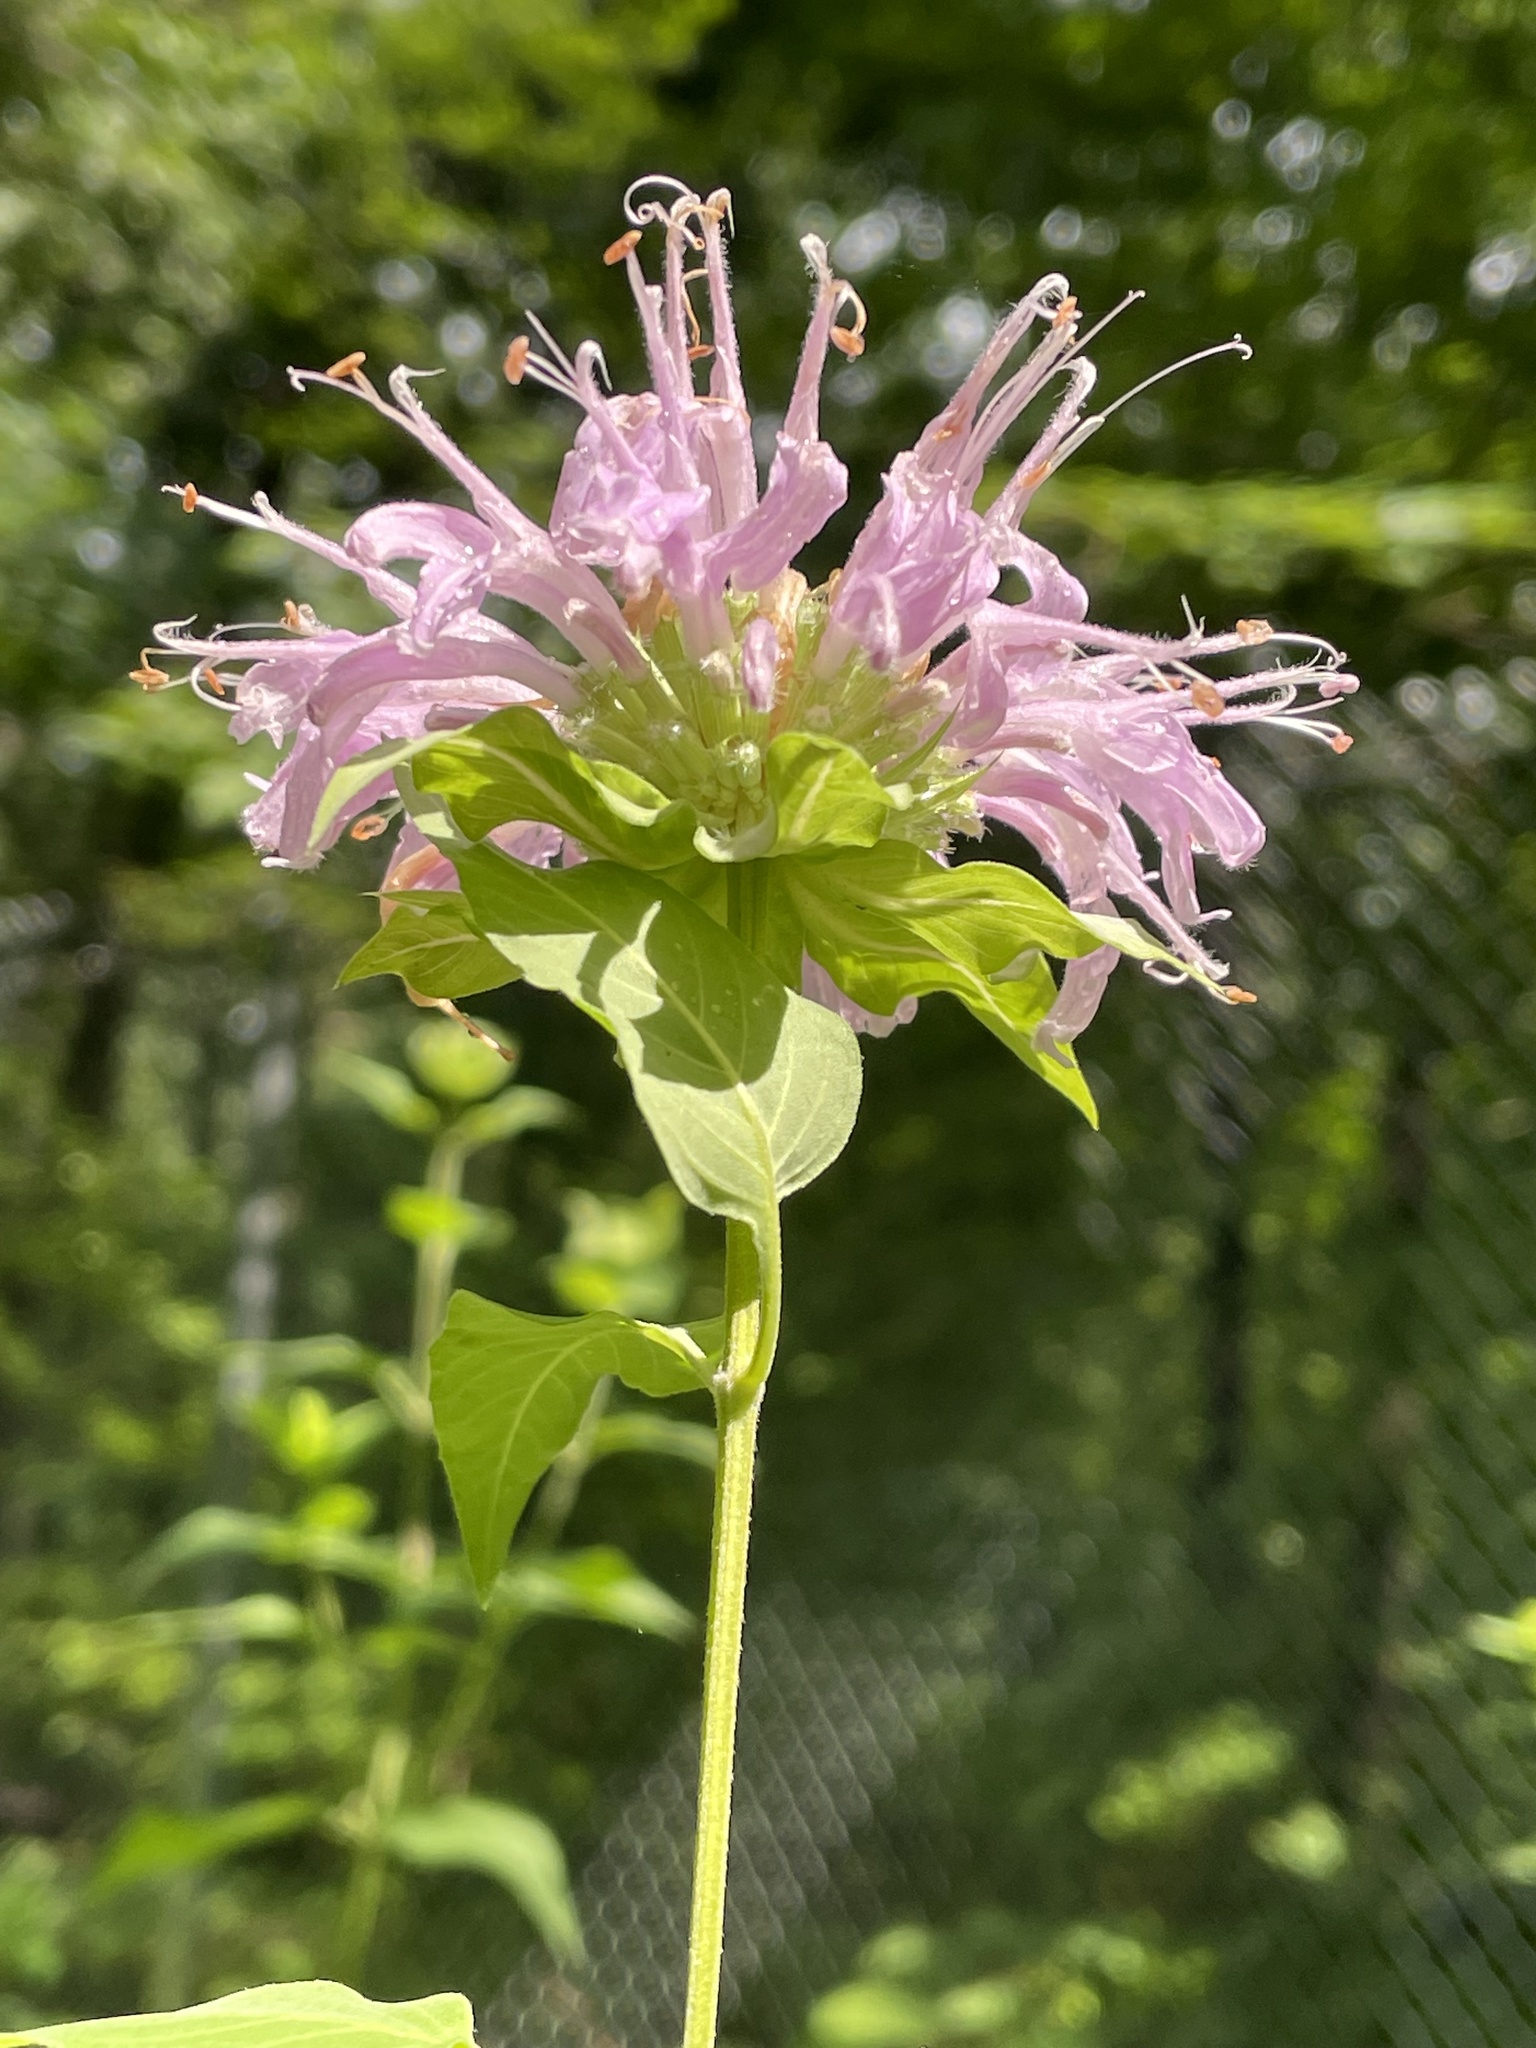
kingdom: Plantae
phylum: Tracheophyta
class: Magnoliopsida
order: Lamiales
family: Lamiaceae
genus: Monarda
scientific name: Monarda fistulosa
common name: Purple beebalm
